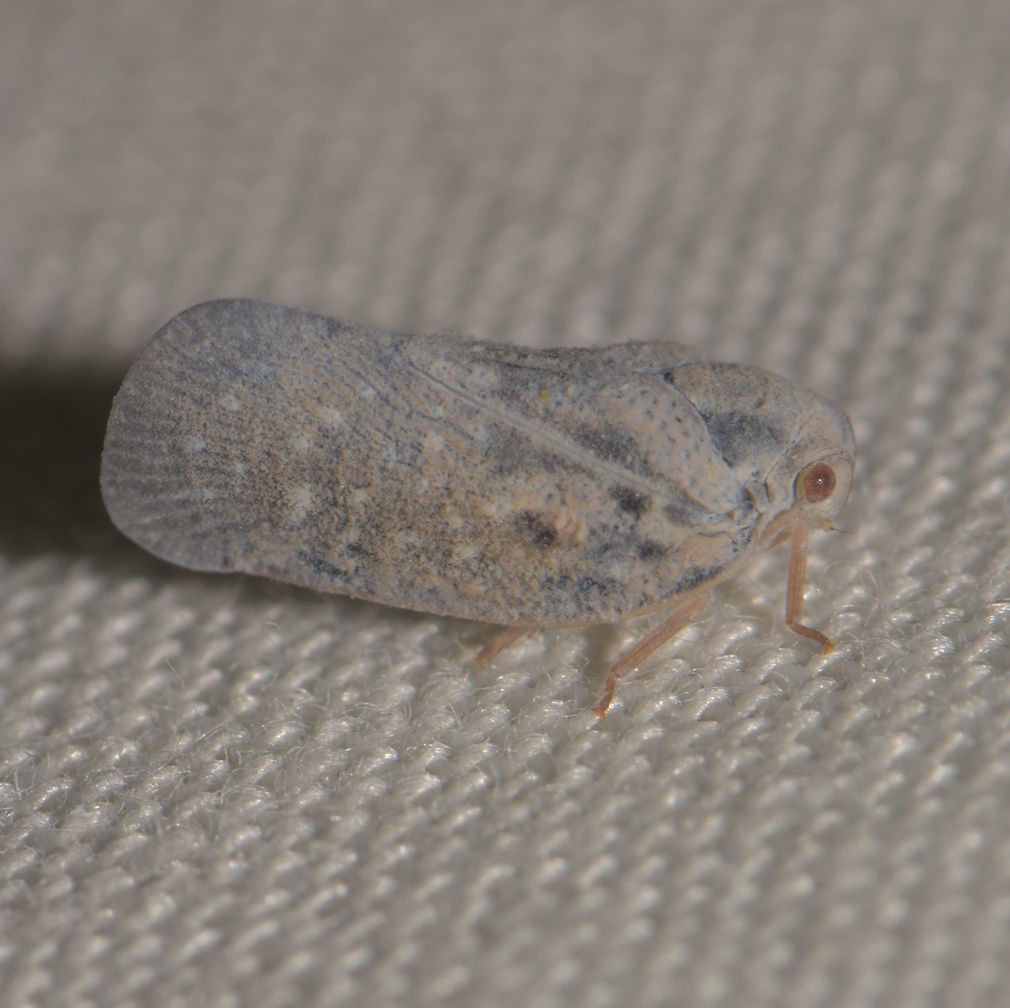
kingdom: Animalia
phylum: Arthropoda
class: Insecta
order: Hemiptera
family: Flatidae
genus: Metcalfa
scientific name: Metcalfa pruinosa
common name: Citrus flatid planthopper
